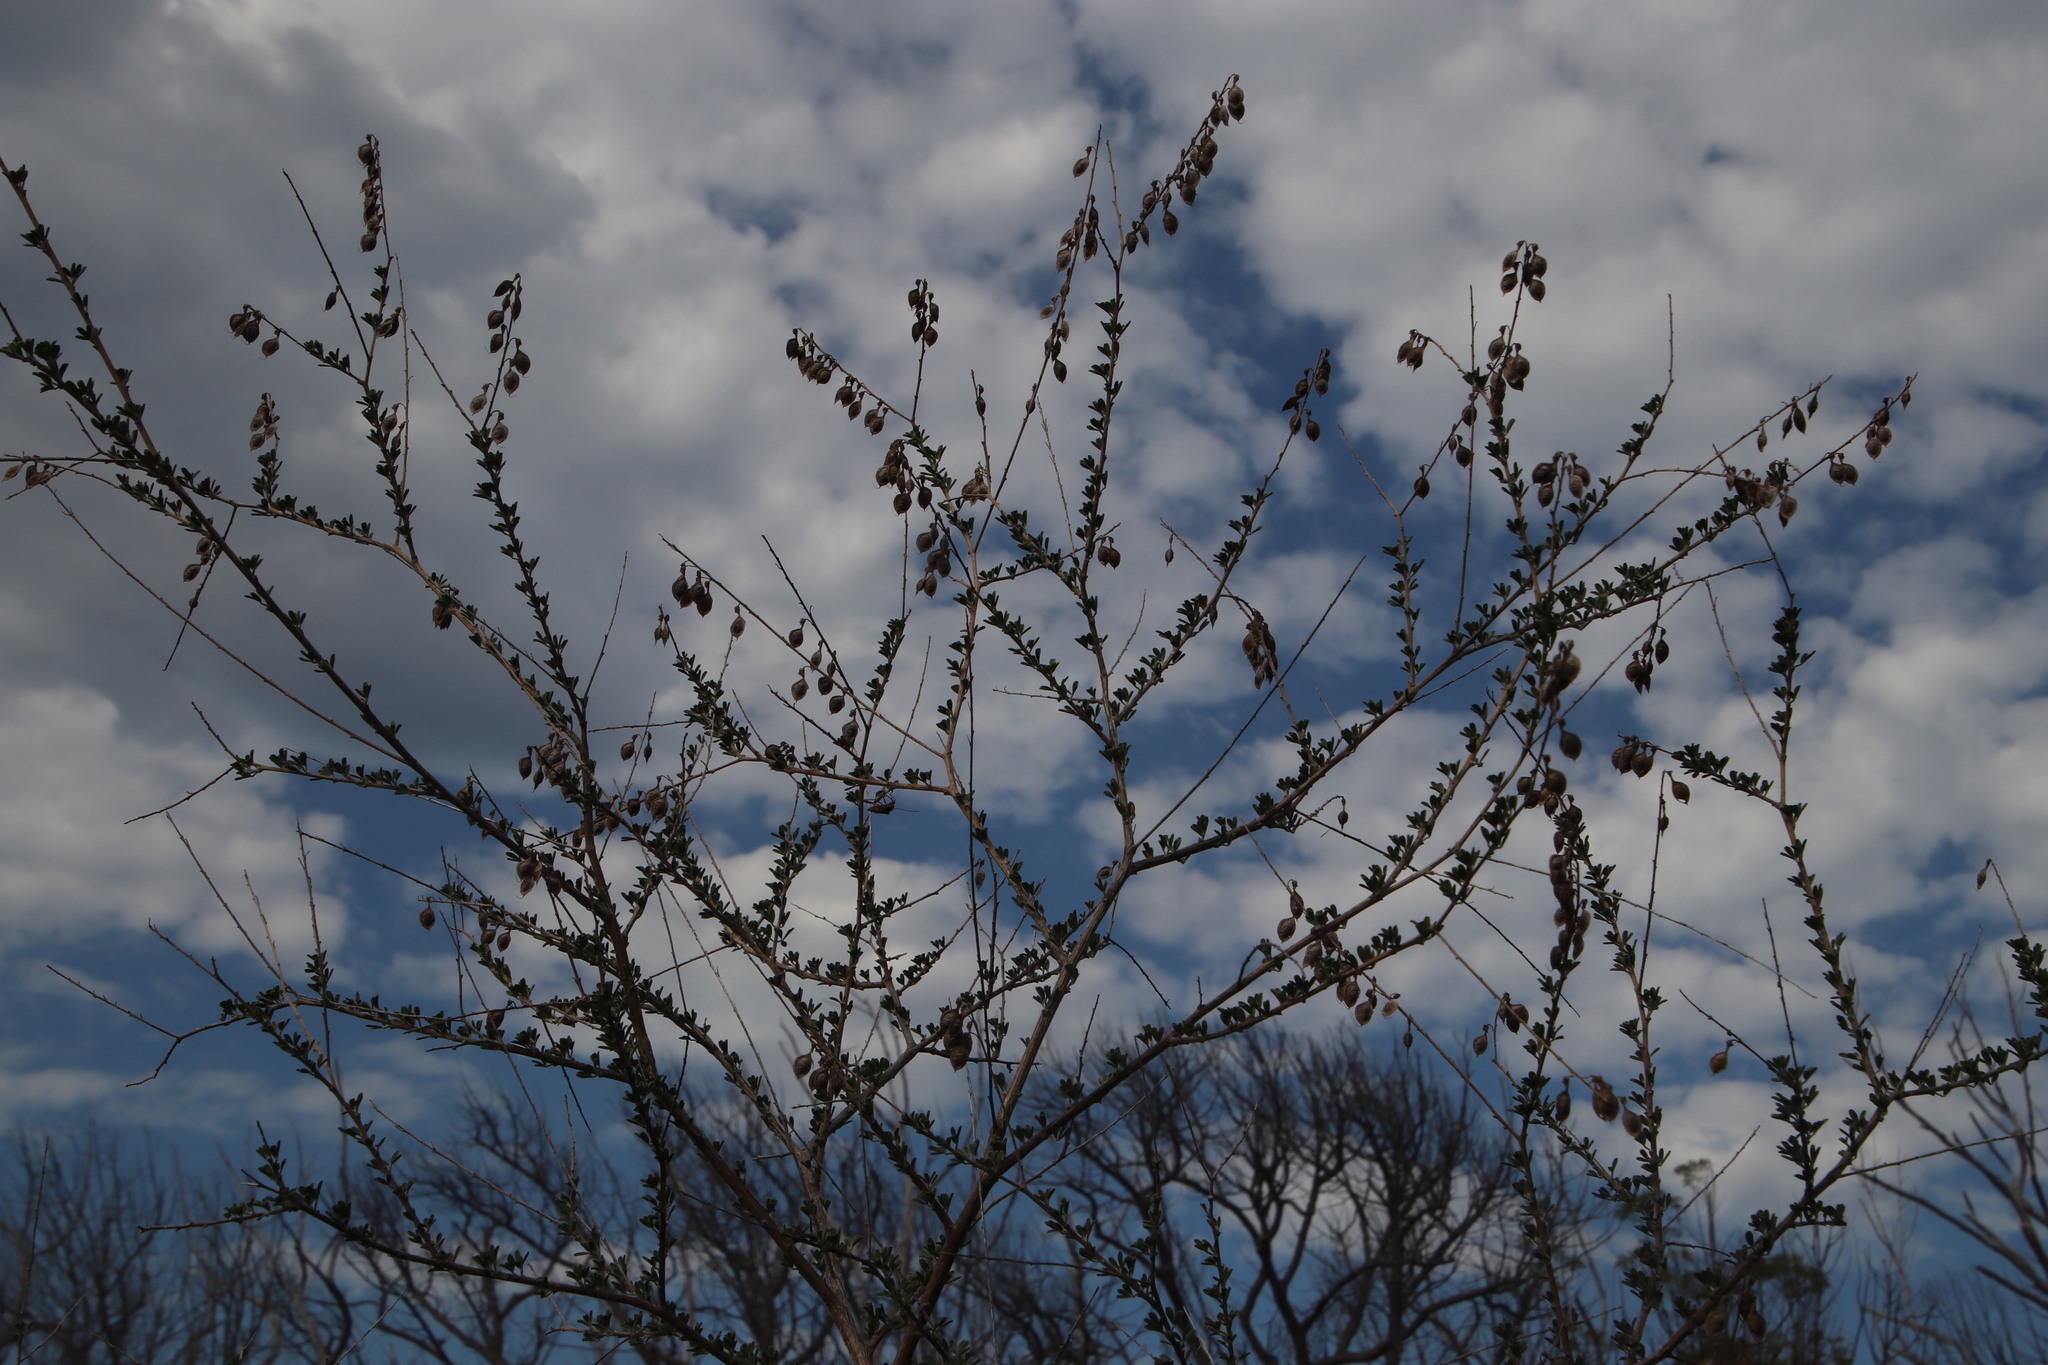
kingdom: Plantae
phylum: Tracheophyta
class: Magnoliopsida
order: Fabales
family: Fabaceae
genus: Wiborgia
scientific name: Wiborgia obcordata
